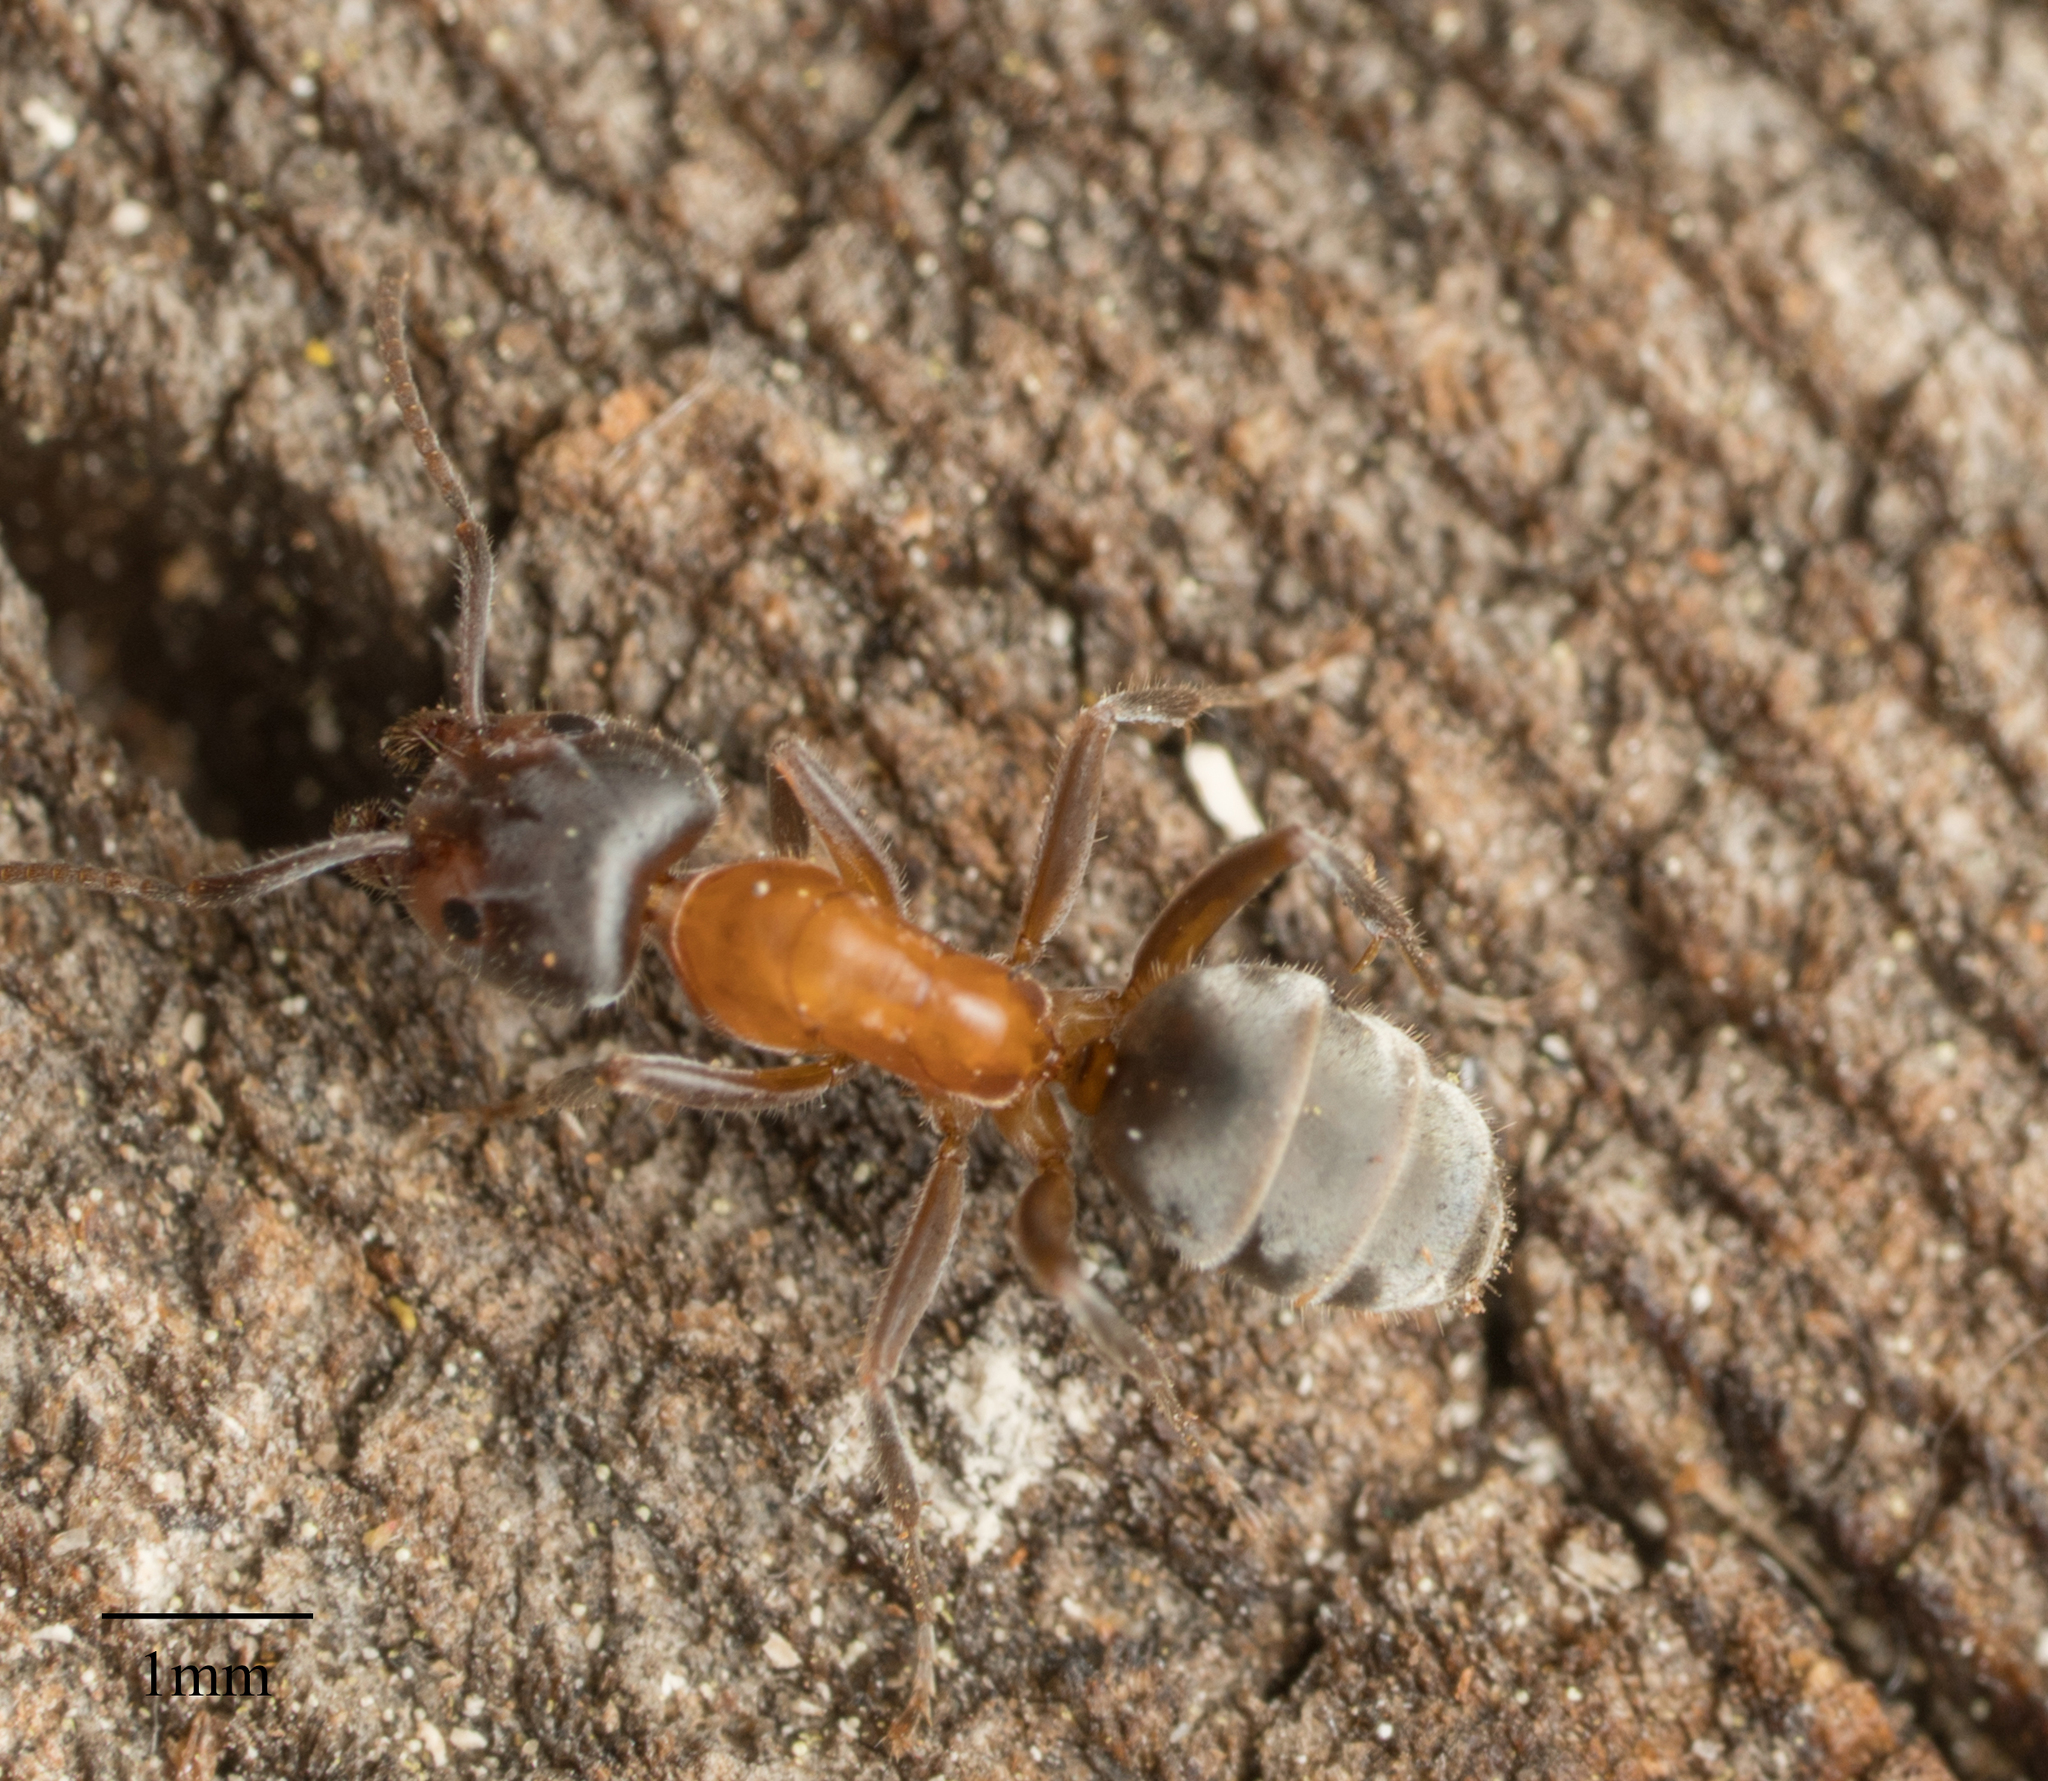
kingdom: Animalia
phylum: Arthropoda
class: Insecta
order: Hymenoptera
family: Formicidae
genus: Liometopum
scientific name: Liometopum occidentale
